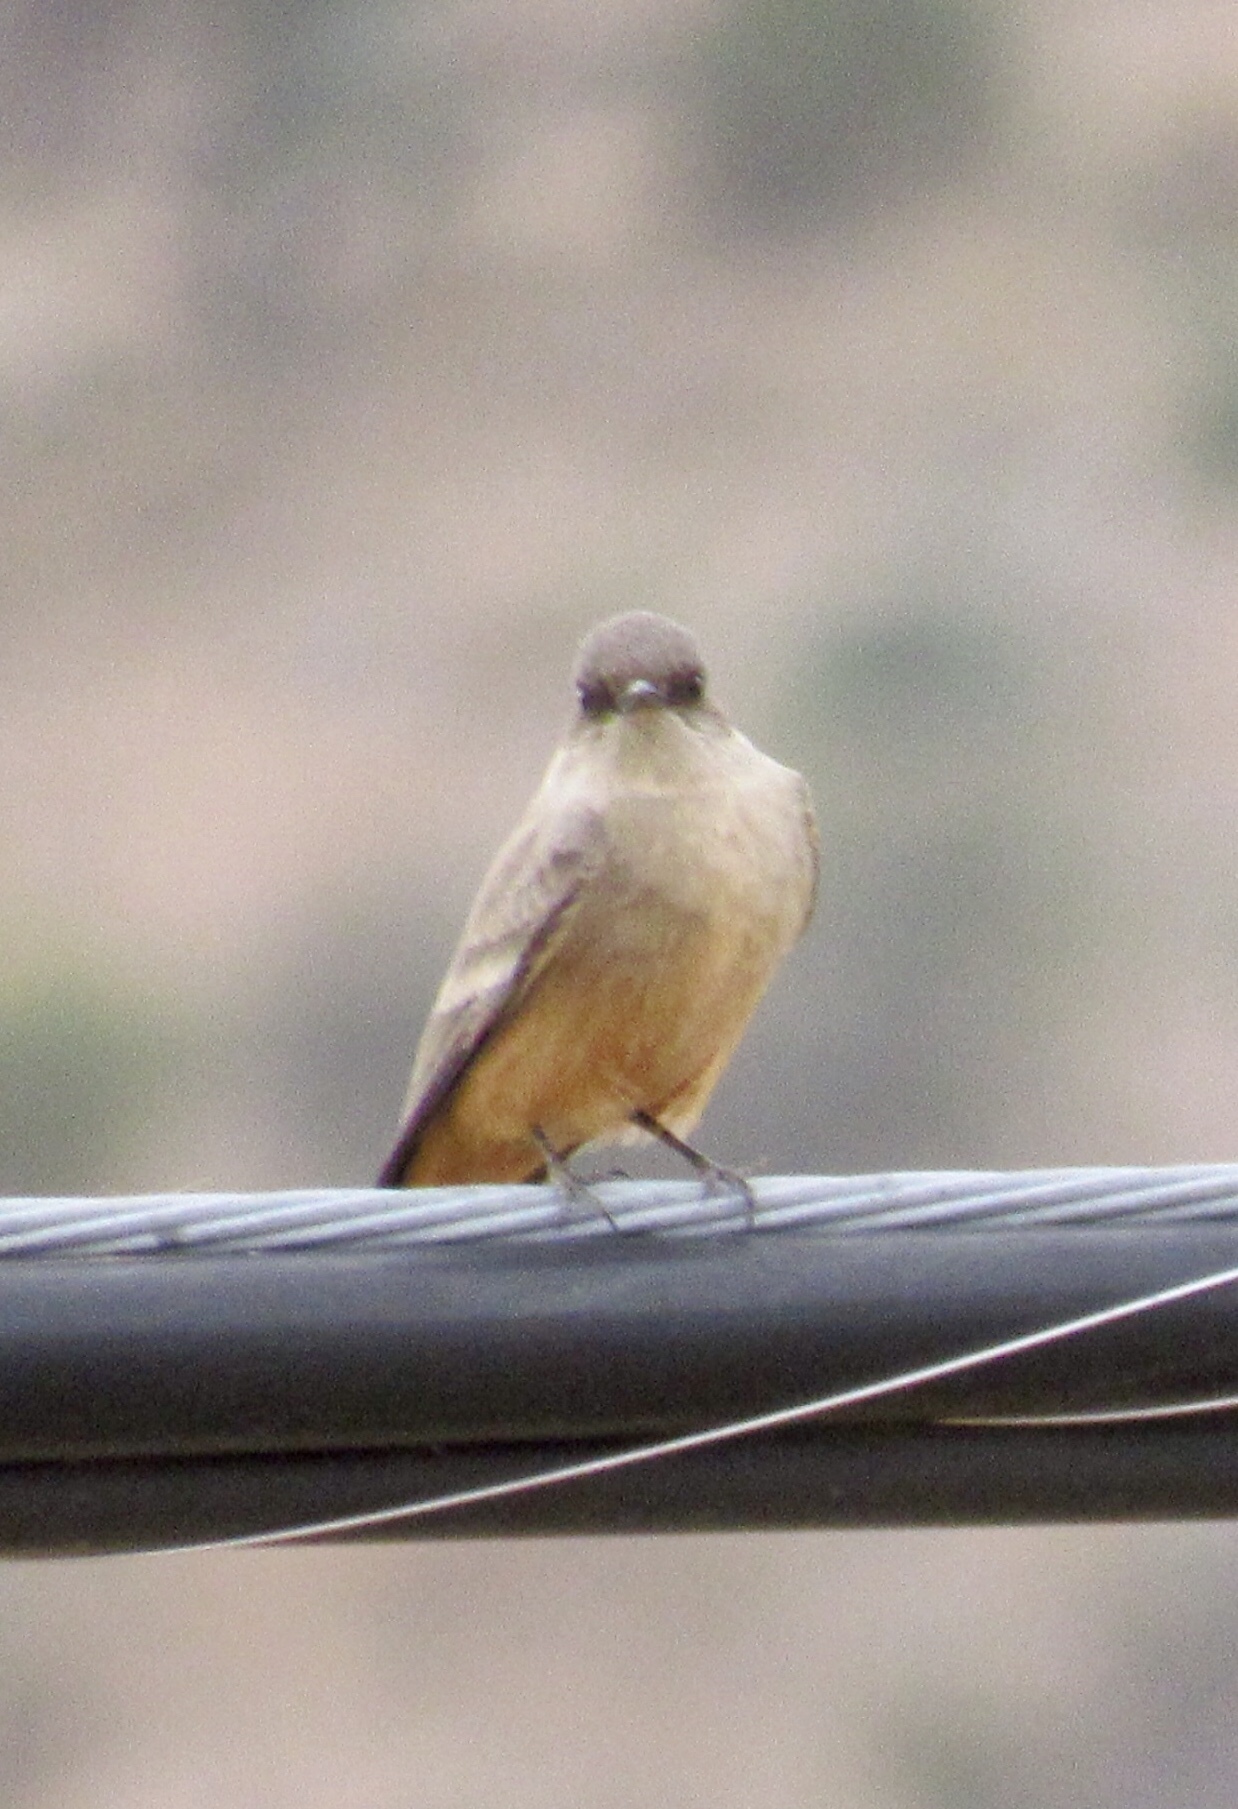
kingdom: Animalia
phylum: Chordata
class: Aves
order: Passeriformes
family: Tyrannidae
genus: Sayornis
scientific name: Sayornis saya
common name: Say's phoebe
